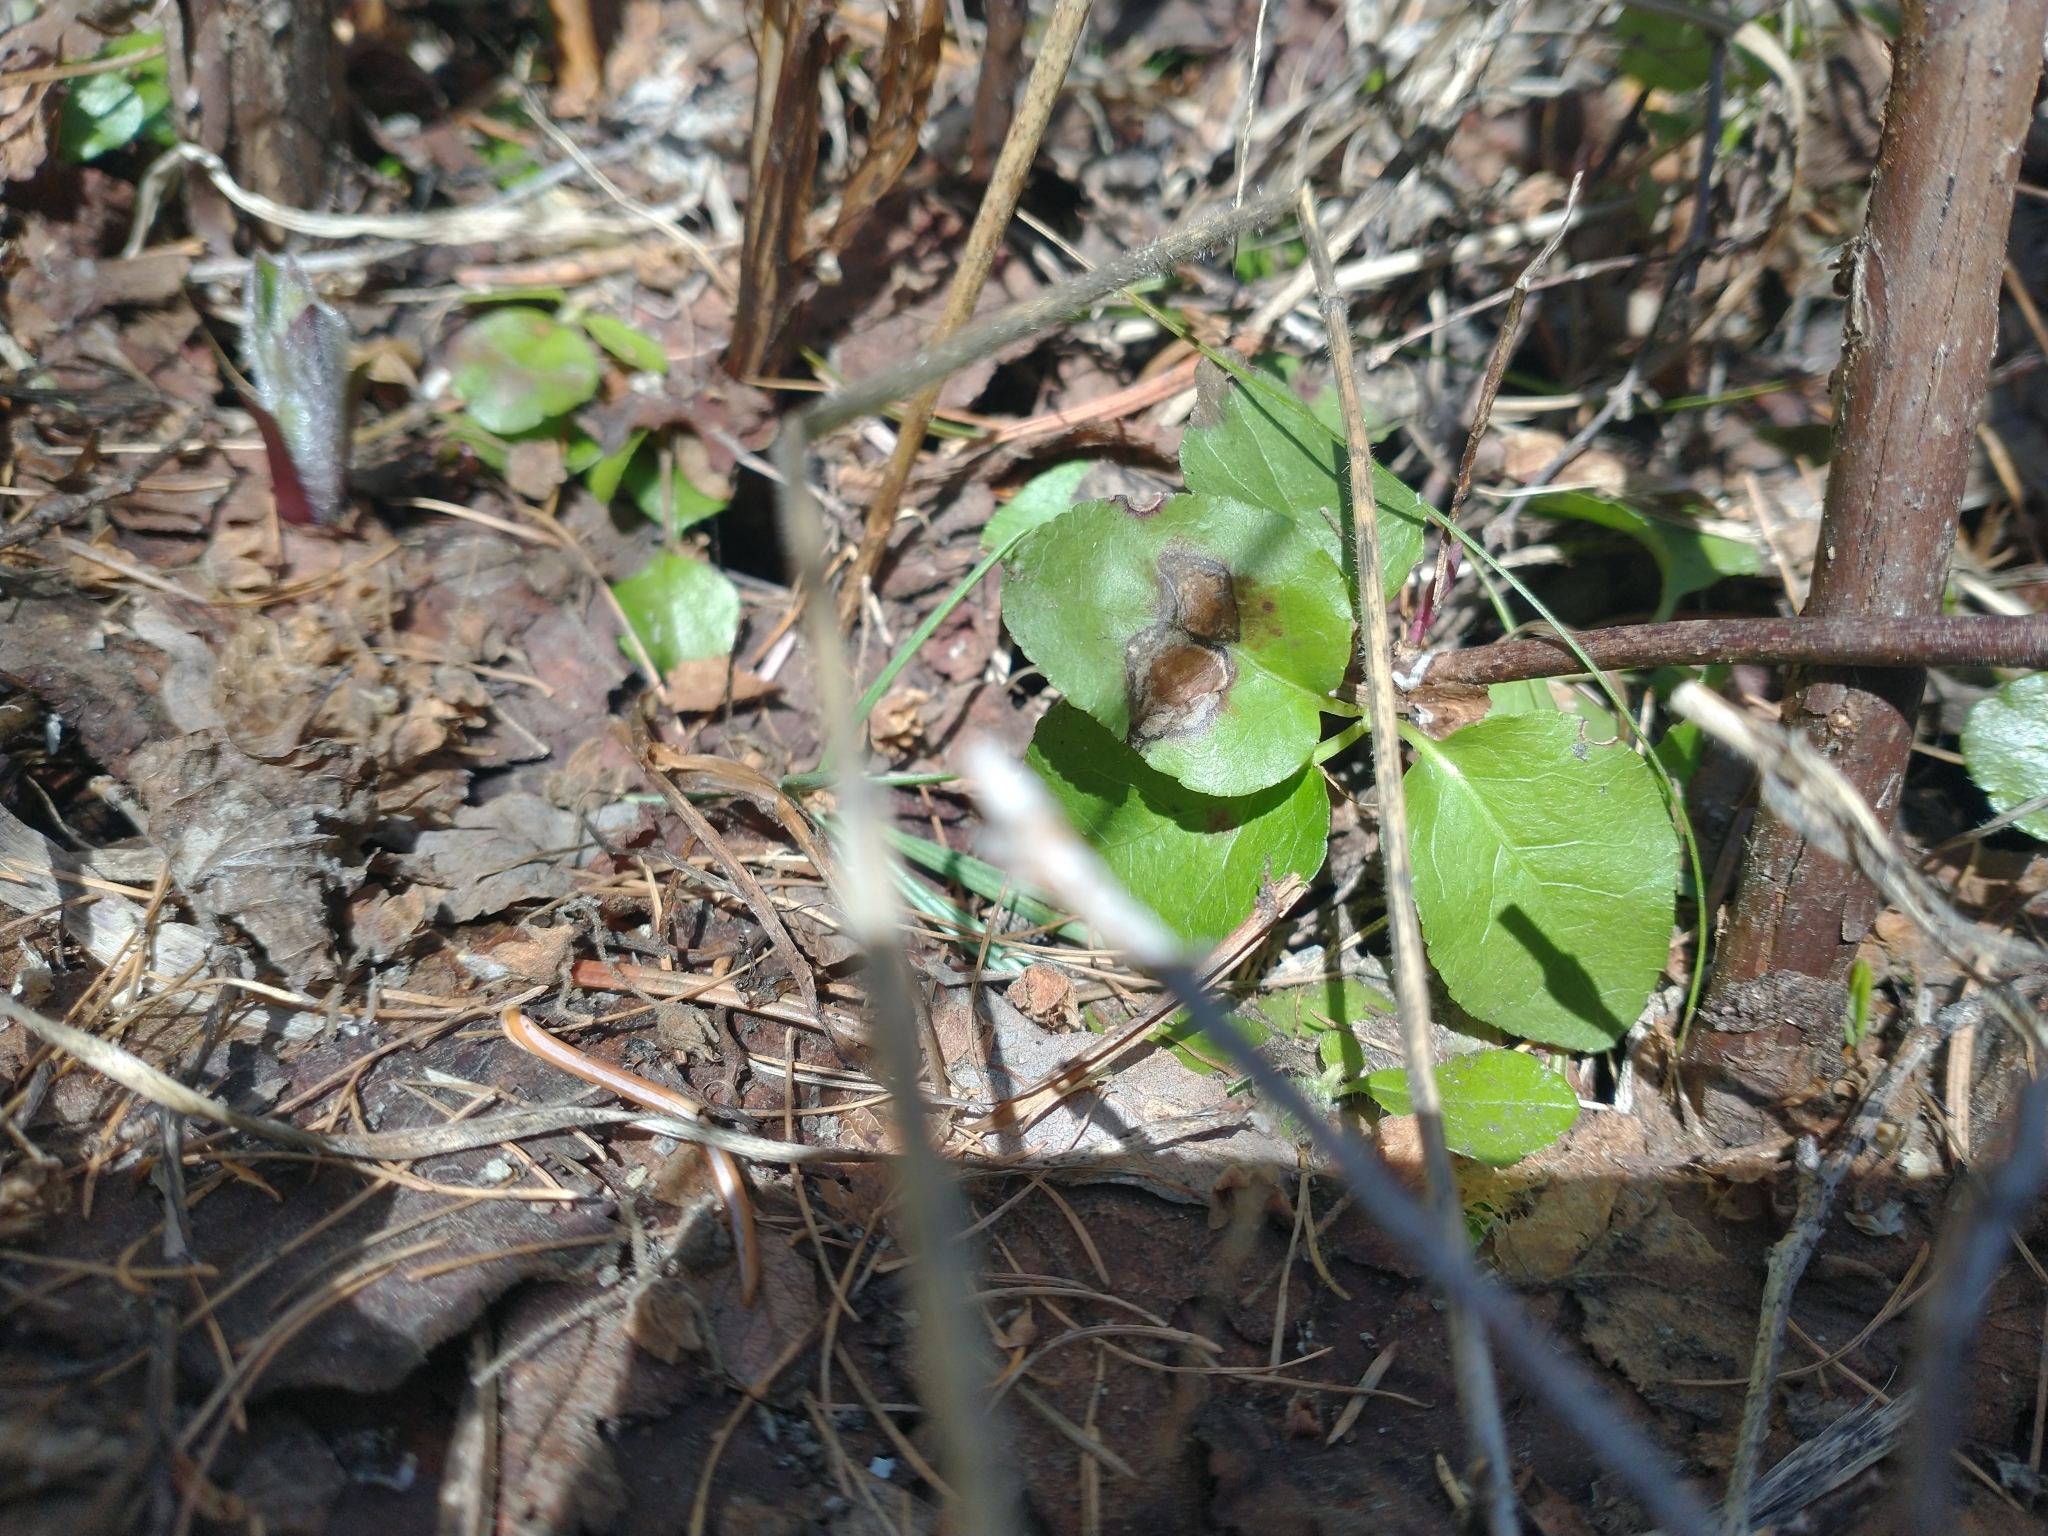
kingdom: Plantae
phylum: Tracheophyta
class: Magnoliopsida
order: Ericales
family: Ericaceae
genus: Orthilia
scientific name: Orthilia secunda
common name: One-sided orthilia
